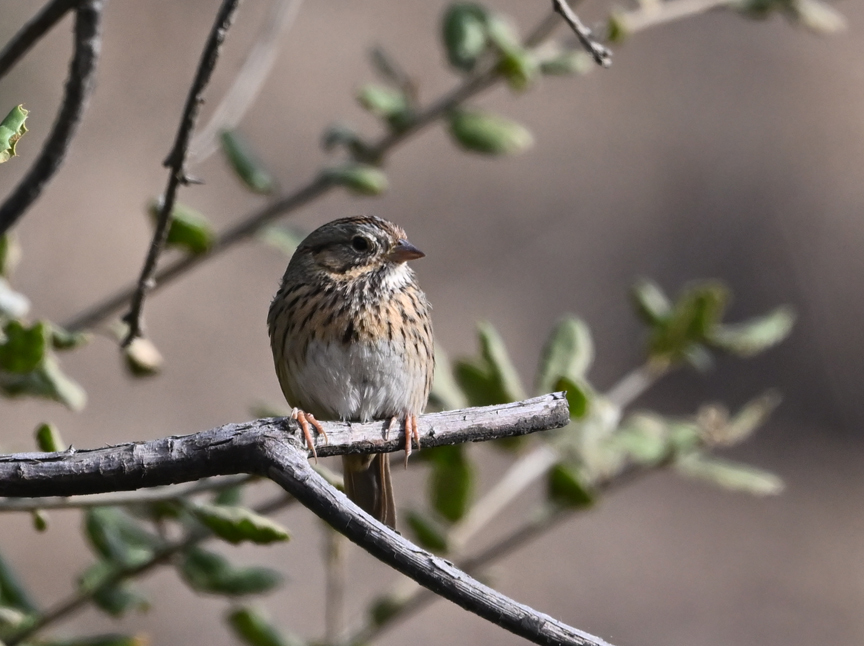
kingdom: Animalia
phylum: Chordata
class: Aves
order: Passeriformes
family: Passerellidae
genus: Melospiza
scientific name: Melospiza lincolnii
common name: Lincoln's sparrow
